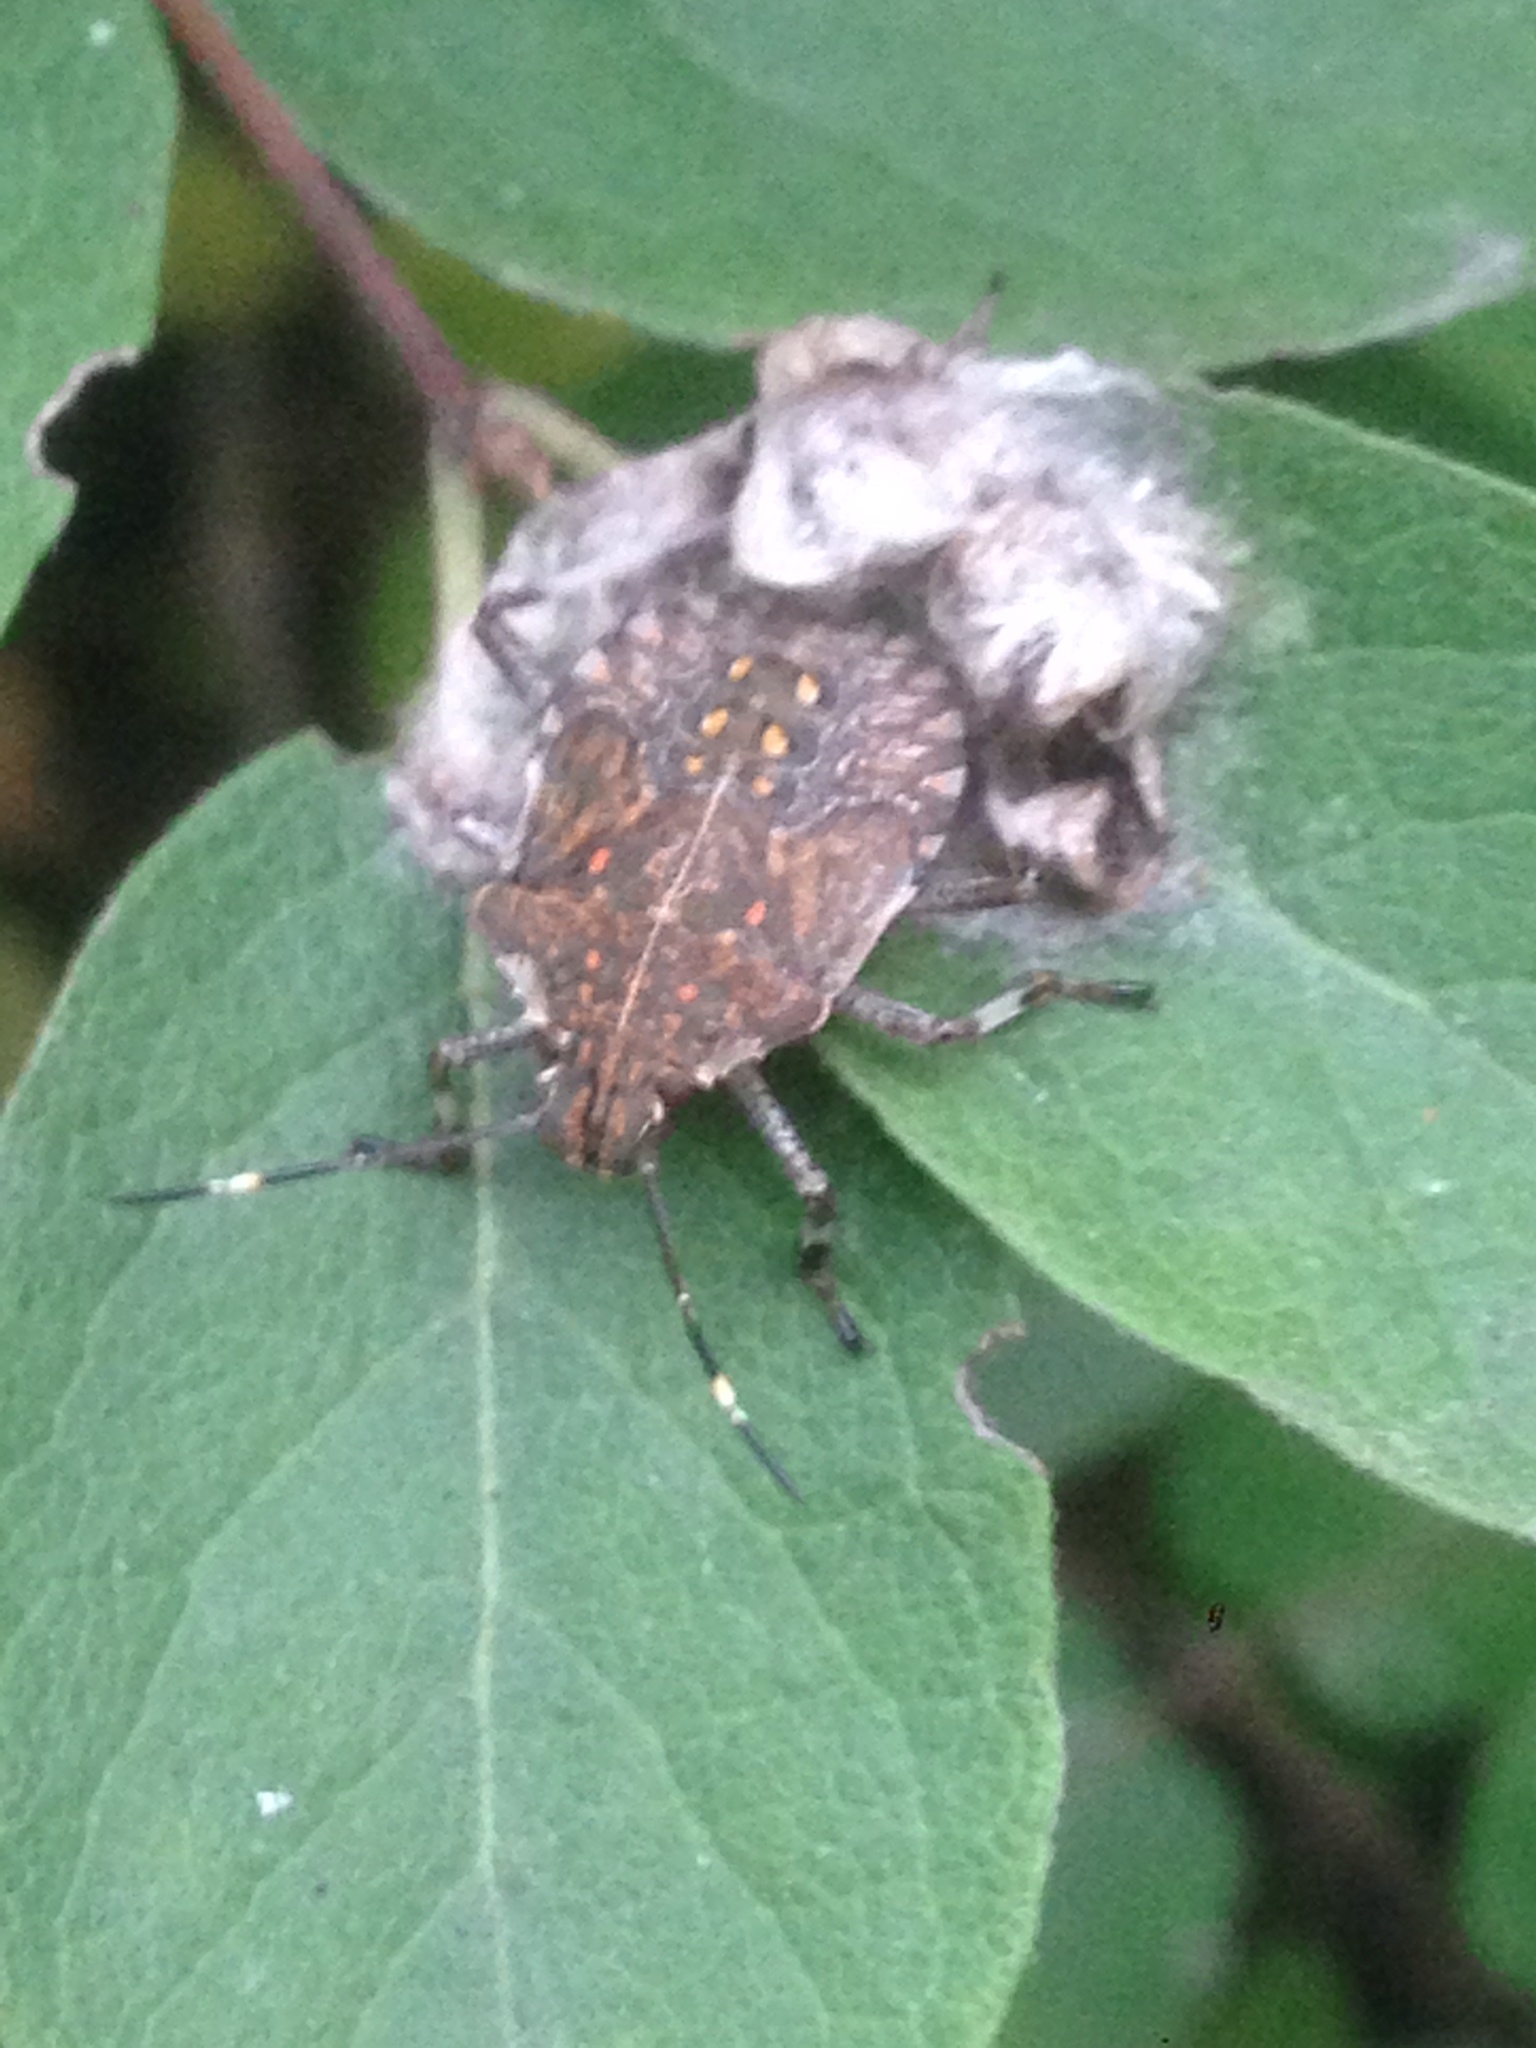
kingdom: Animalia
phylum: Arthropoda
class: Insecta
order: Hemiptera
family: Pentatomidae
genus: Halyomorpha
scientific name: Halyomorpha halys
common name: Brown marmorated stink bug
